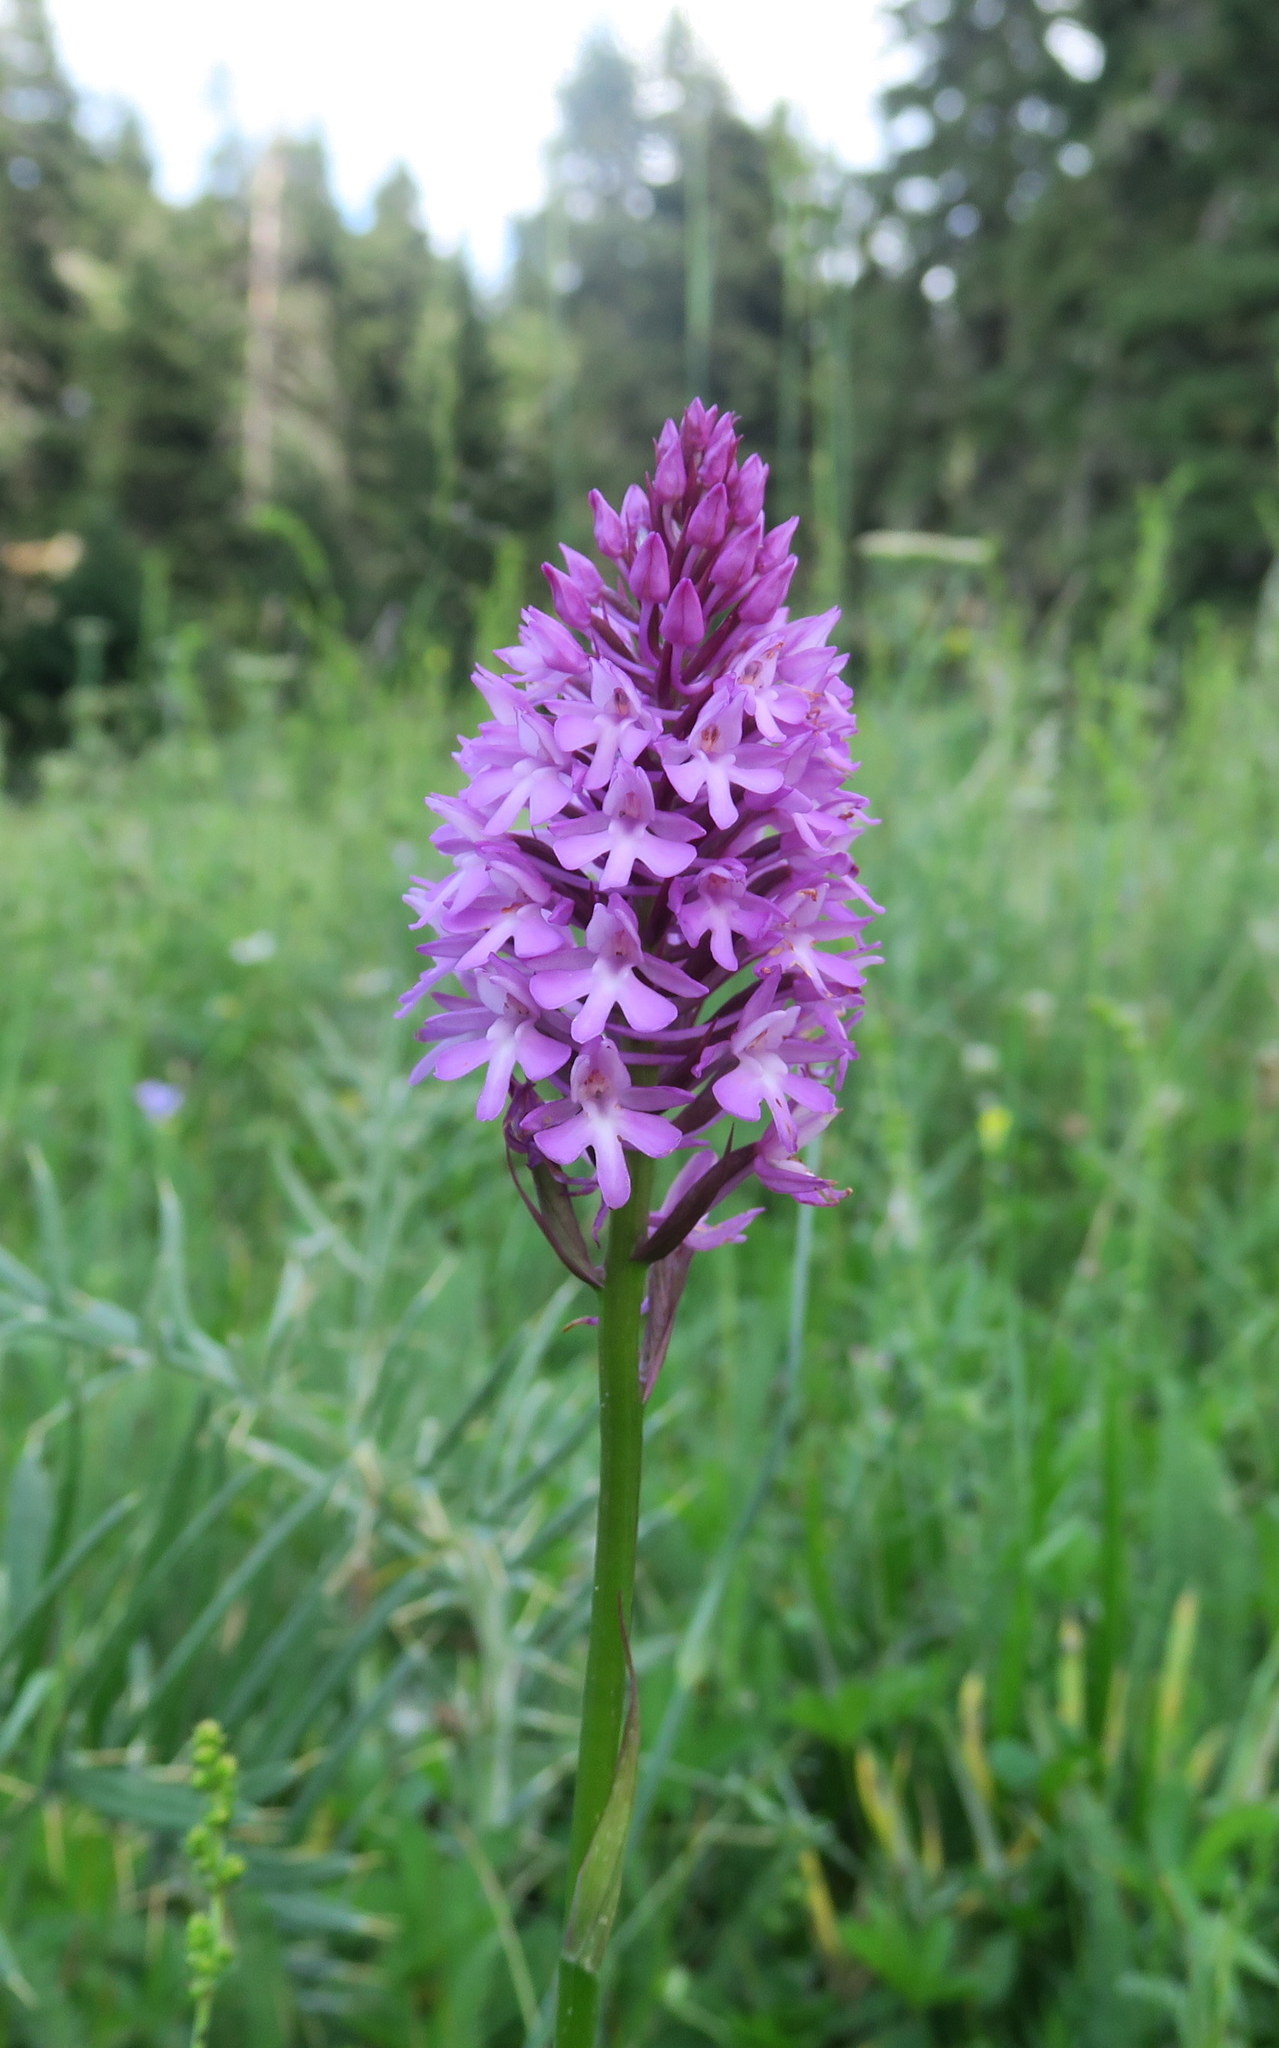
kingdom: Plantae
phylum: Tracheophyta
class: Liliopsida
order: Asparagales
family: Orchidaceae
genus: Anacamptis
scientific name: Anacamptis pyramidalis
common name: Pyramidal orchid
